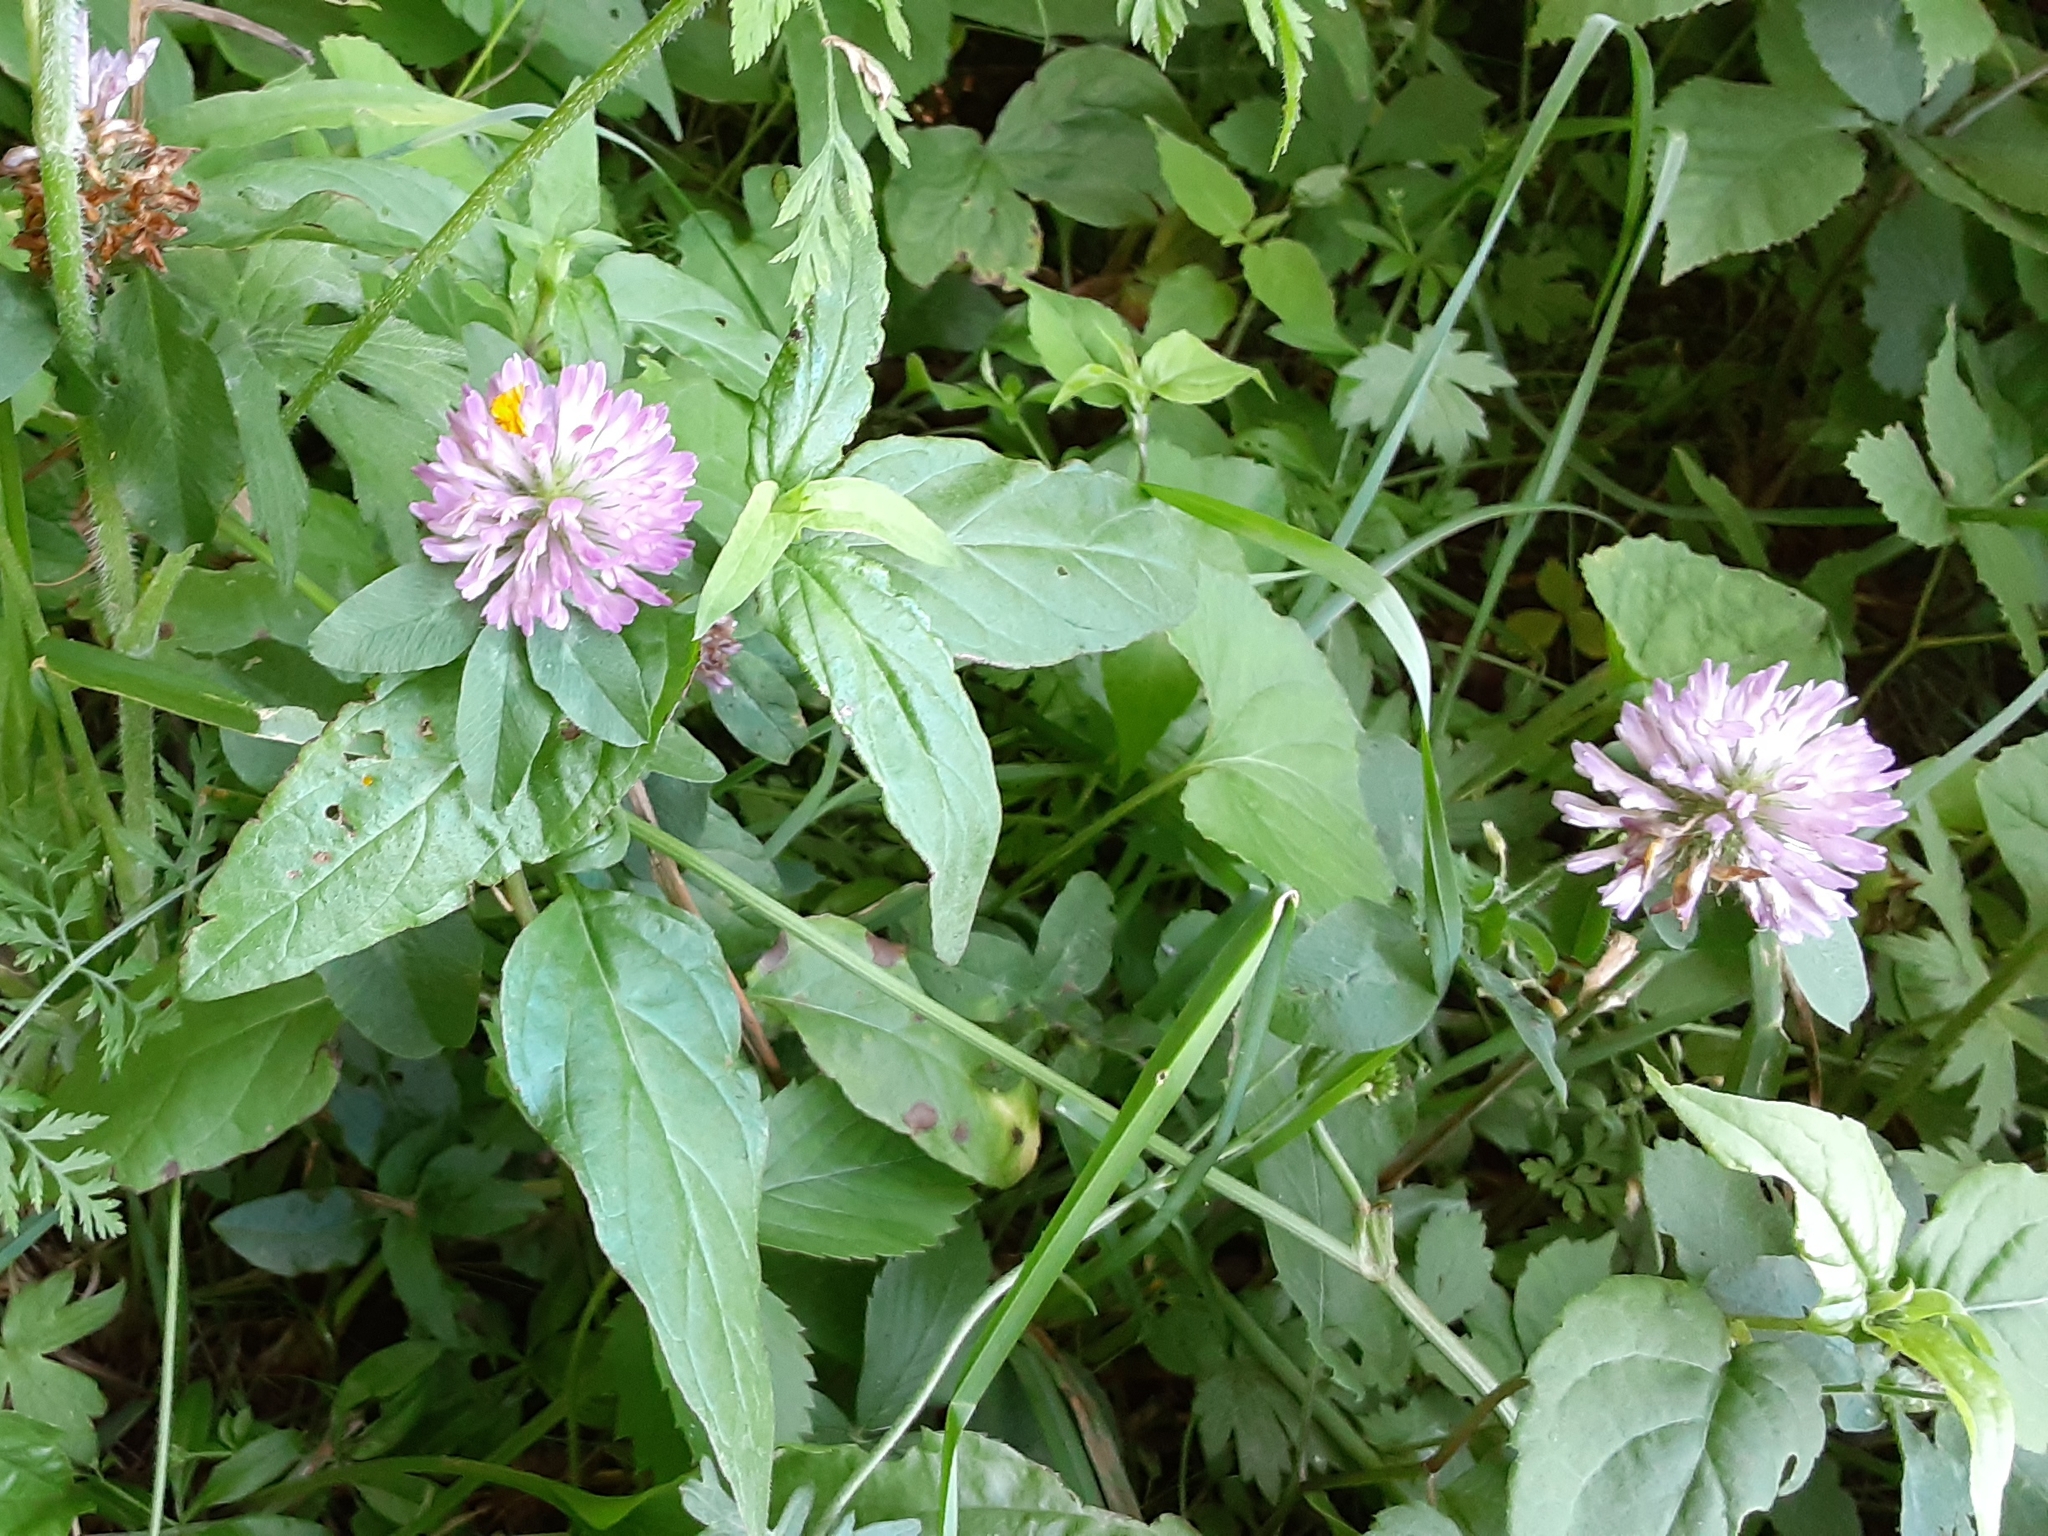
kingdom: Plantae
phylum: Tracheophyta
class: Magnoliopsida
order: Fabales
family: Fabaceae
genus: Trifolium
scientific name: Trifolium pratense
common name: Red clover
